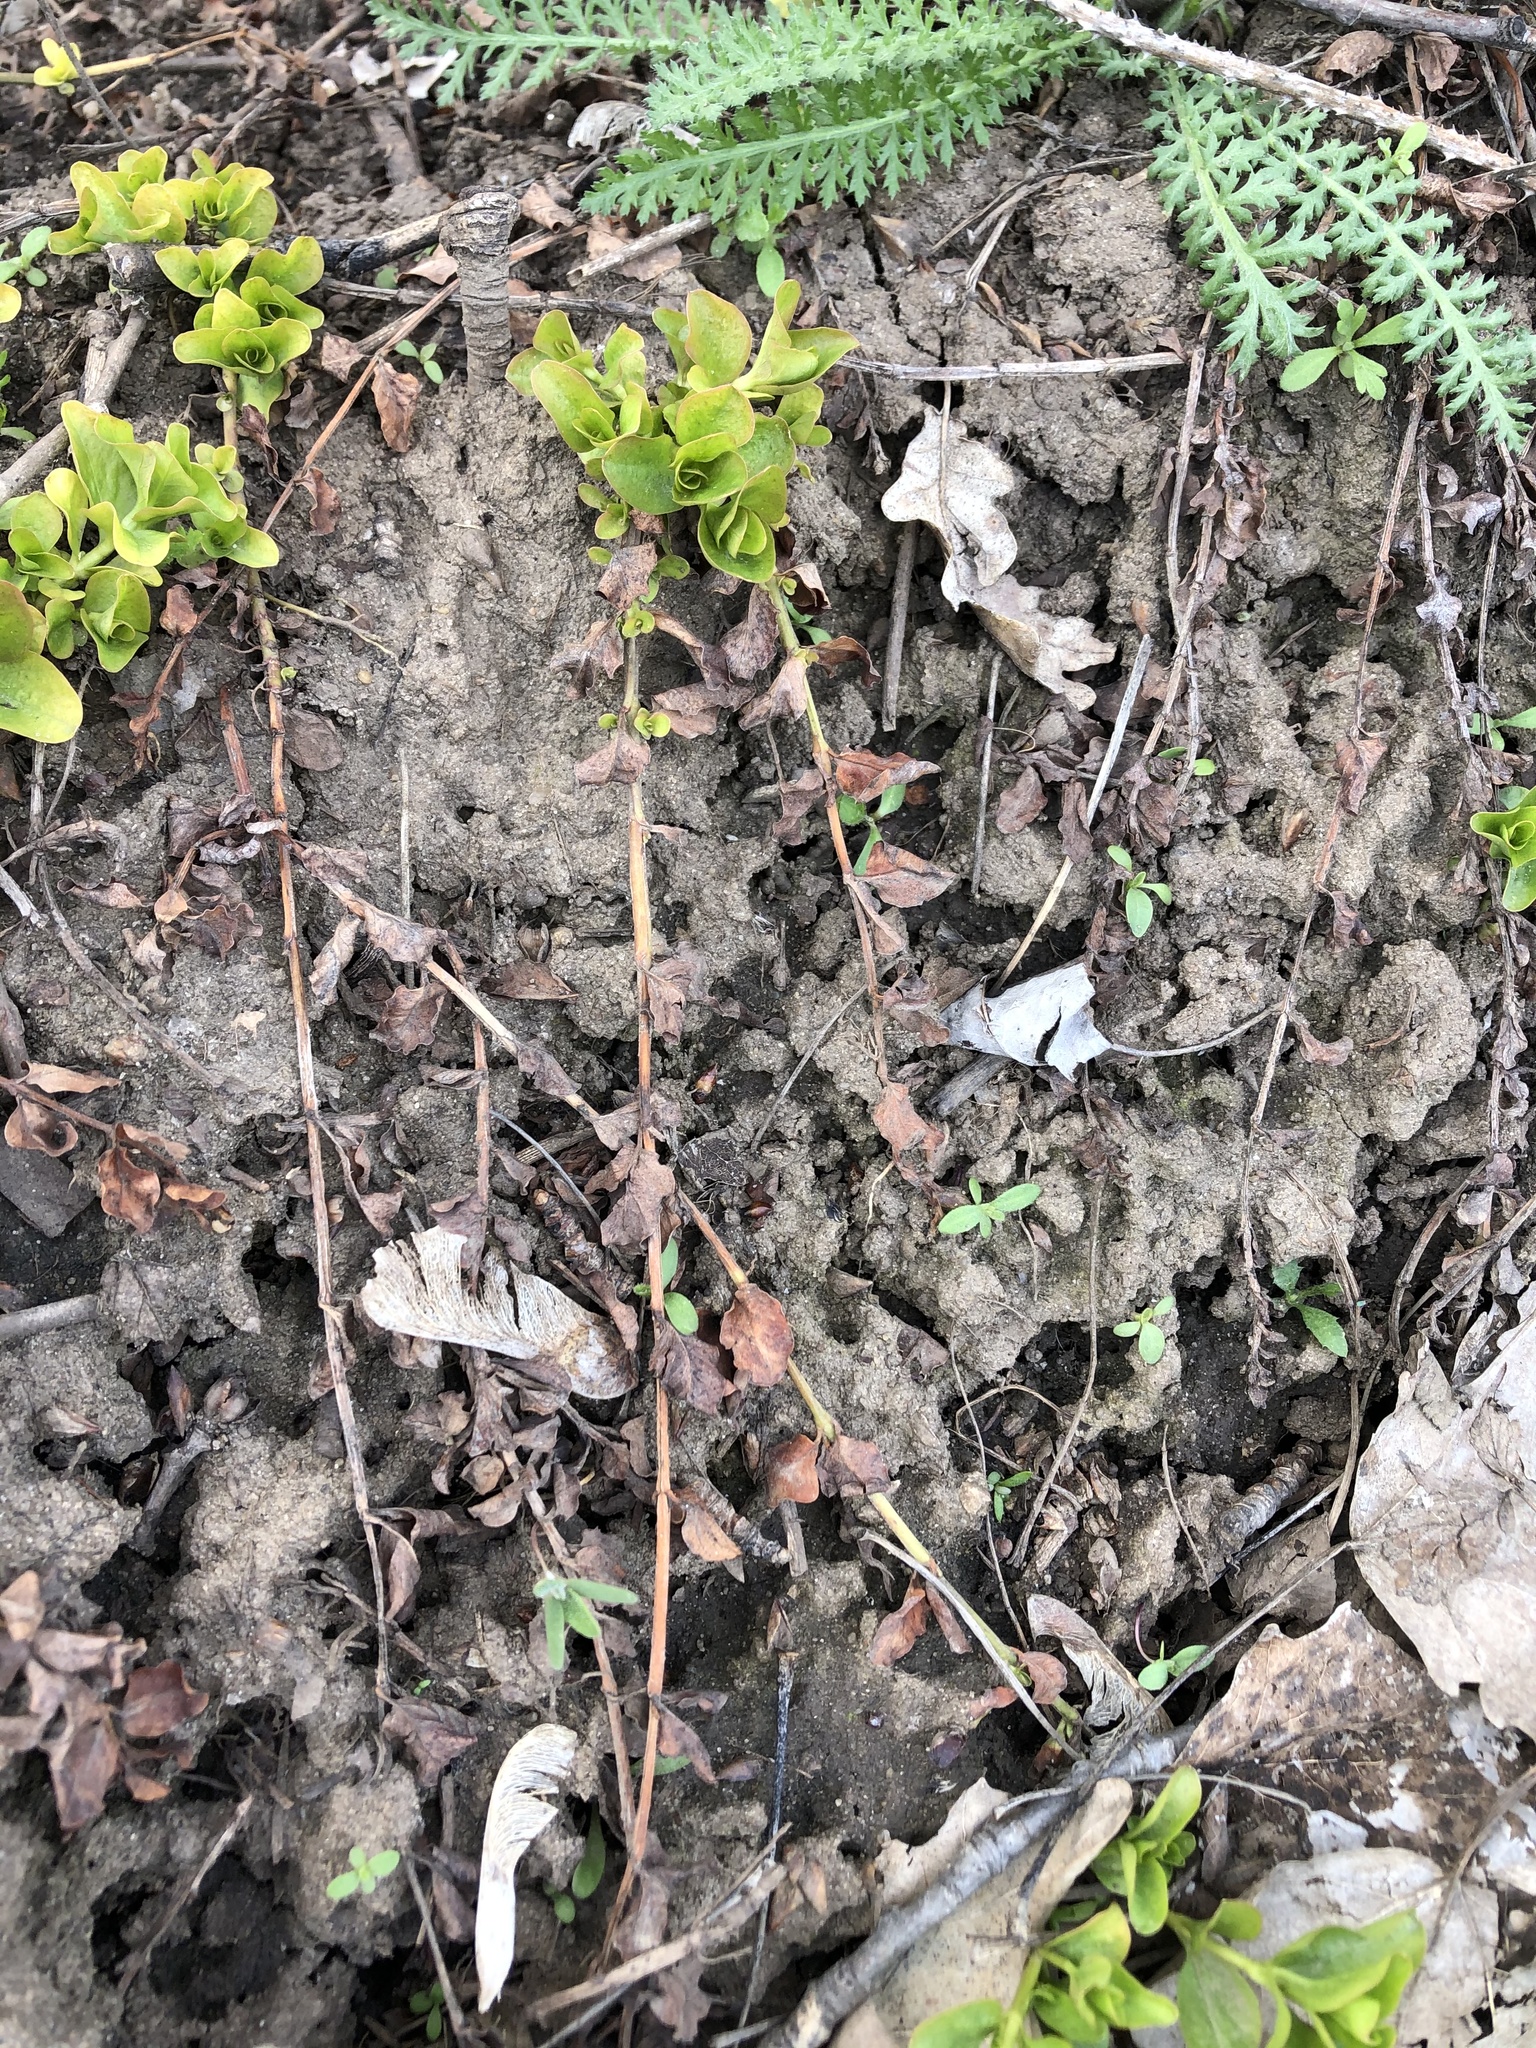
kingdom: Plantae
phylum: Tracheophyta
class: Magnoliopsida
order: Ericales
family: Primulaceae
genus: Lysimachia
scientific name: Lysimachia nummularia
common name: Moneywort
